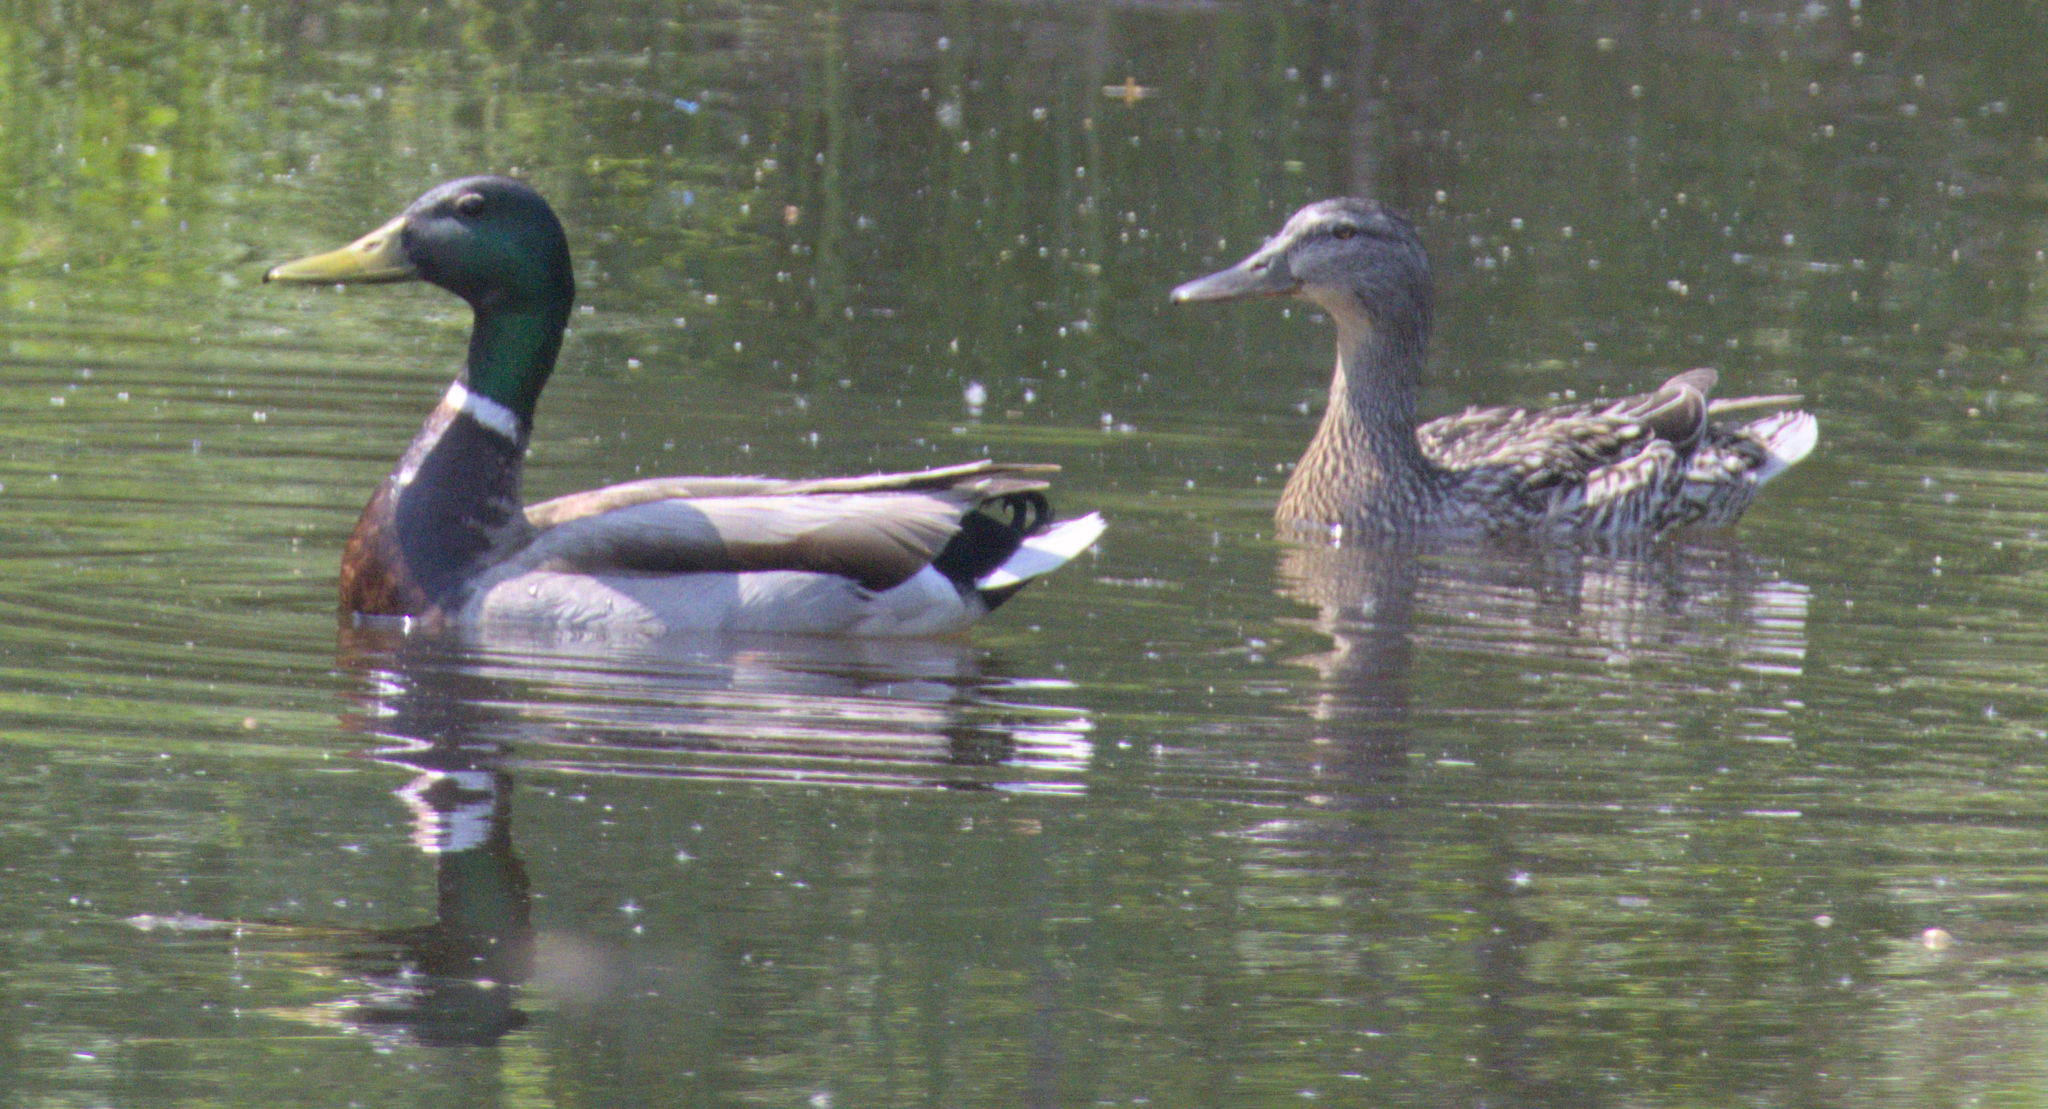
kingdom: Animalia
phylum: Chordata
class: Aves
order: Anseriformes
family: Anatidae
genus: Anas
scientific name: Anas platyrhynchos
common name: Mallard
